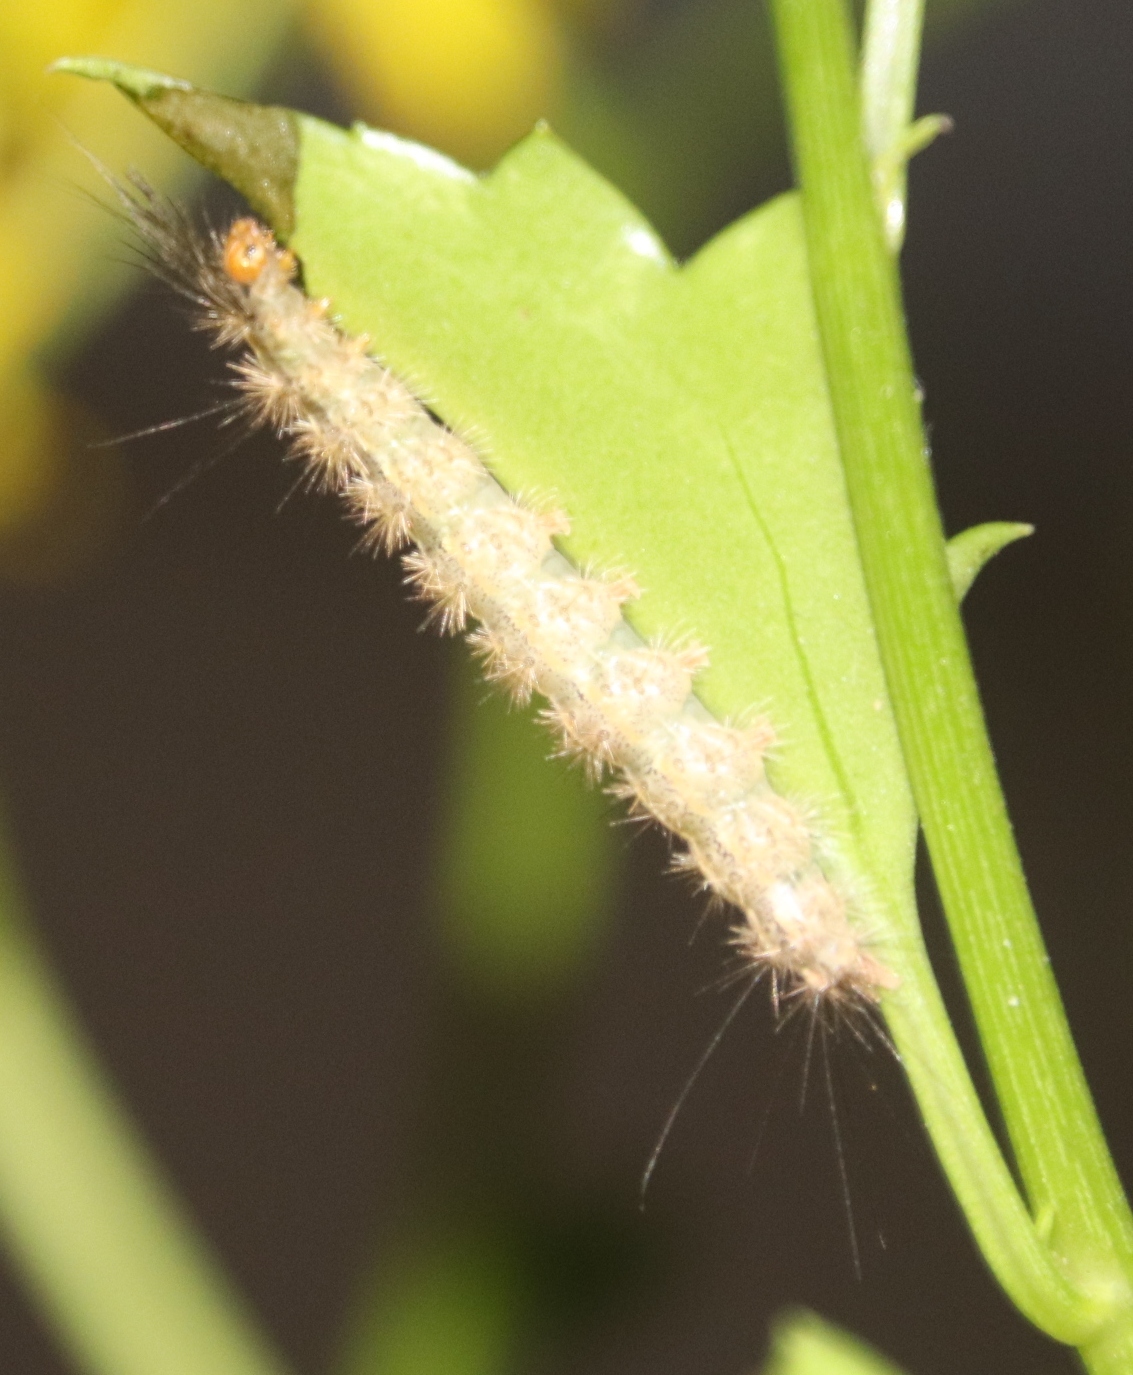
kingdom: Animalia
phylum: Arthropoda
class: Insecta
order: Lepidoptera
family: Erebidae
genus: Galtara
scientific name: Galtara rostrata
